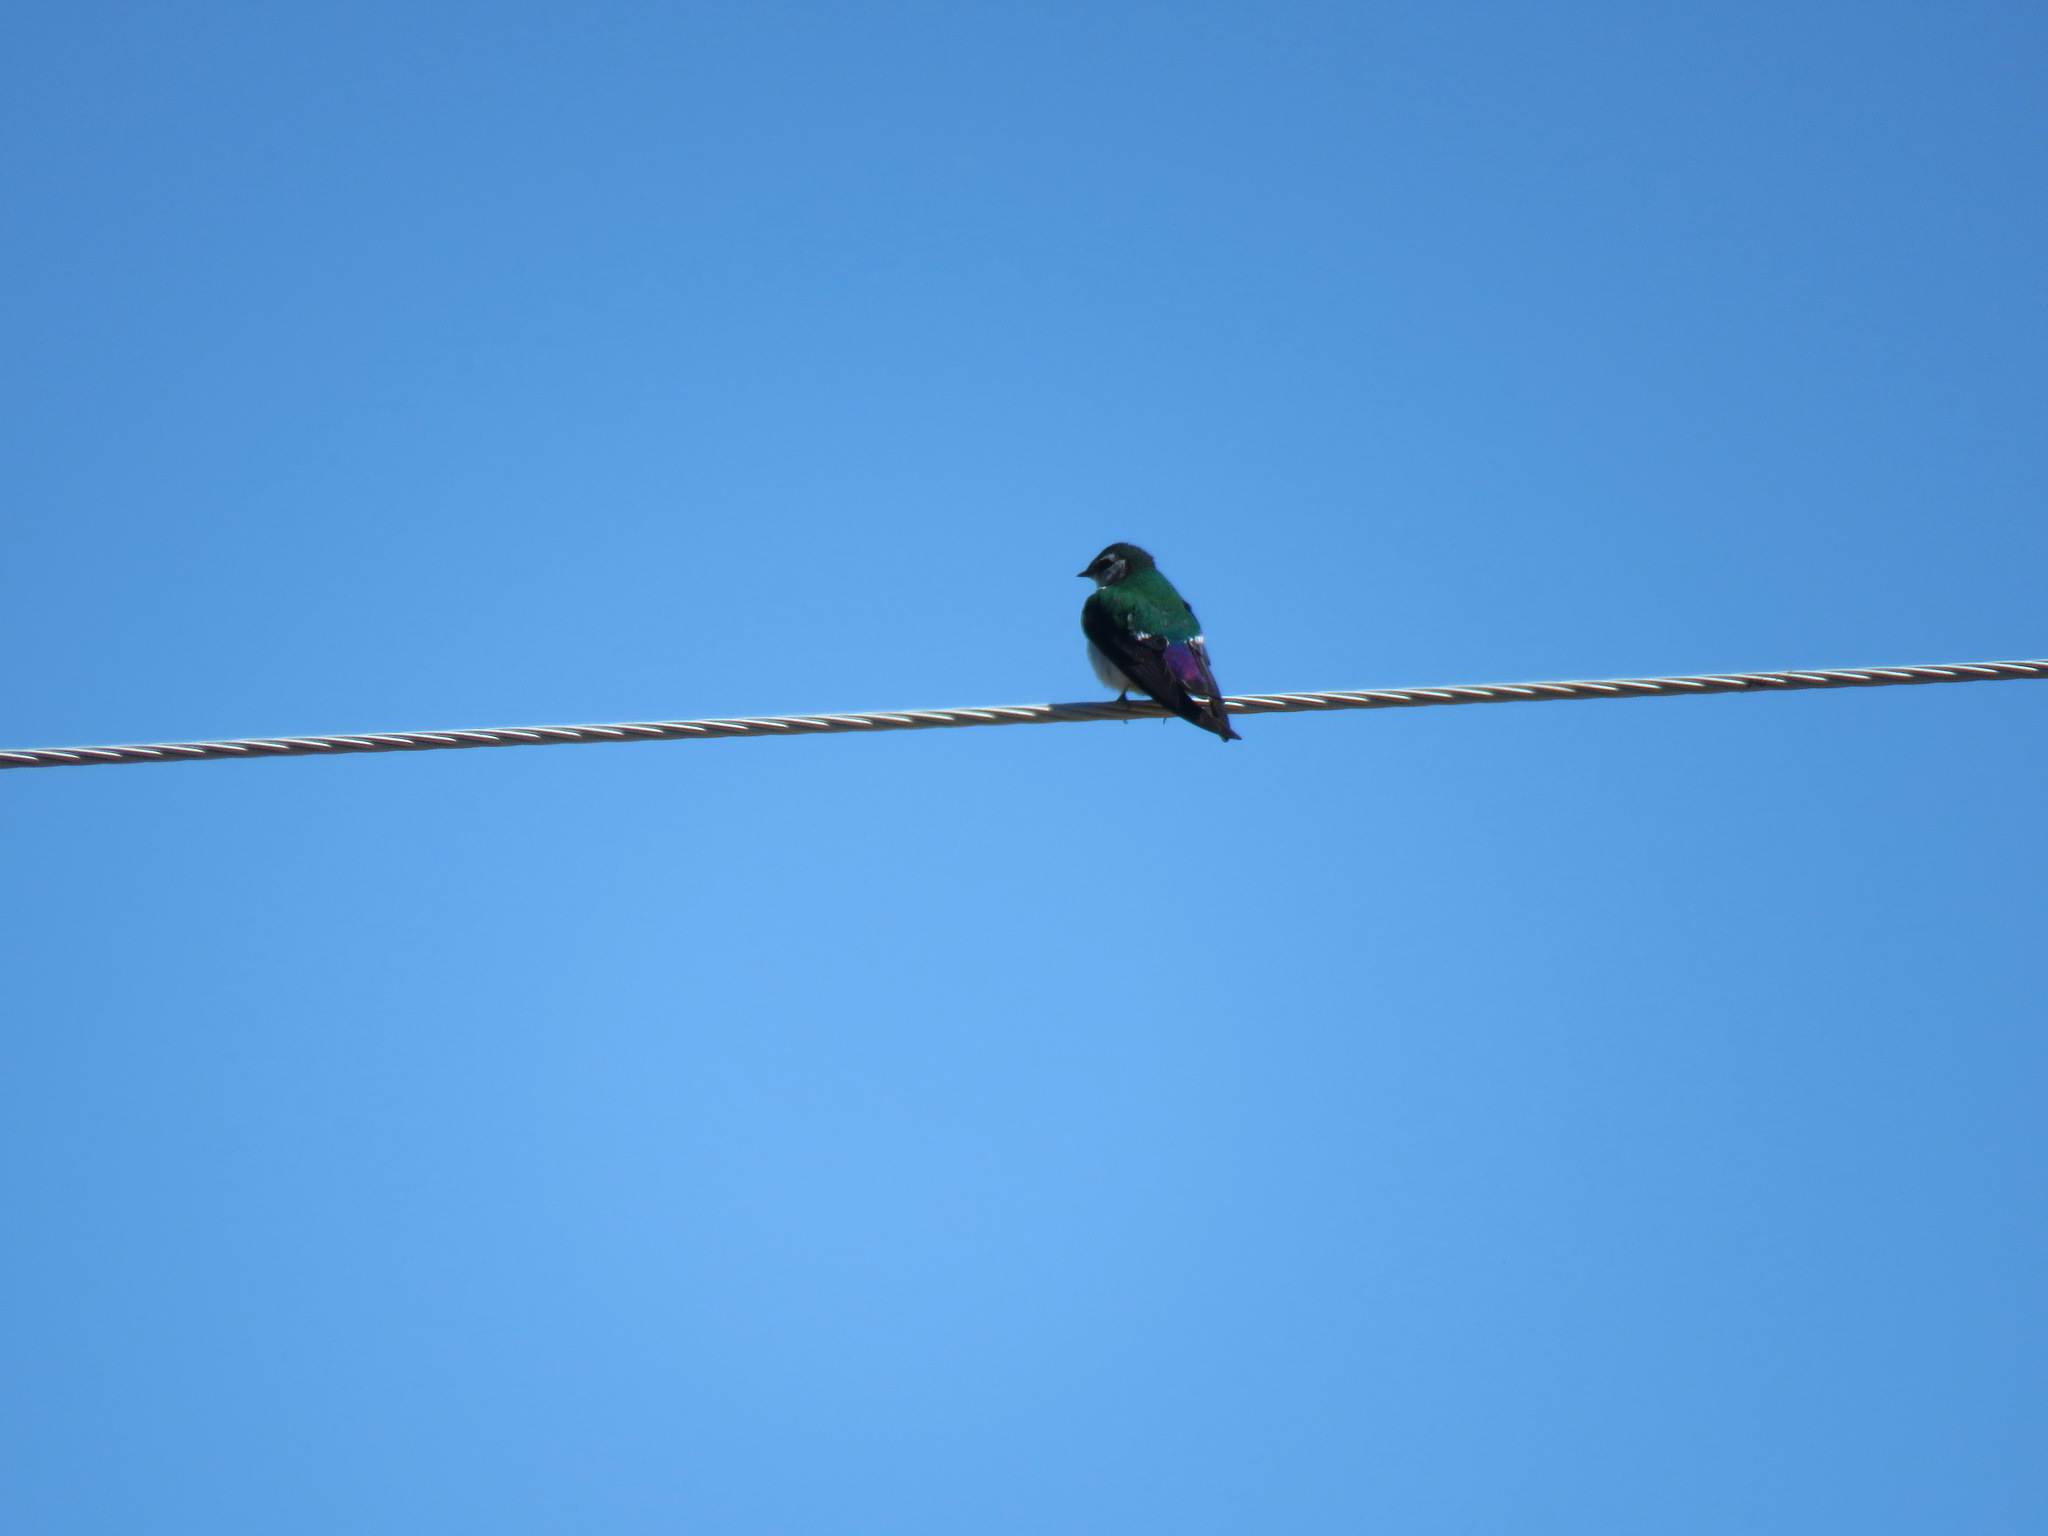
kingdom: Animalia
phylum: Chordata
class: Aves
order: Passeriformes
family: Hirundinidae
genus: Tachycineta
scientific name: Tachycineta thalassina
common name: Violet-green swallow
